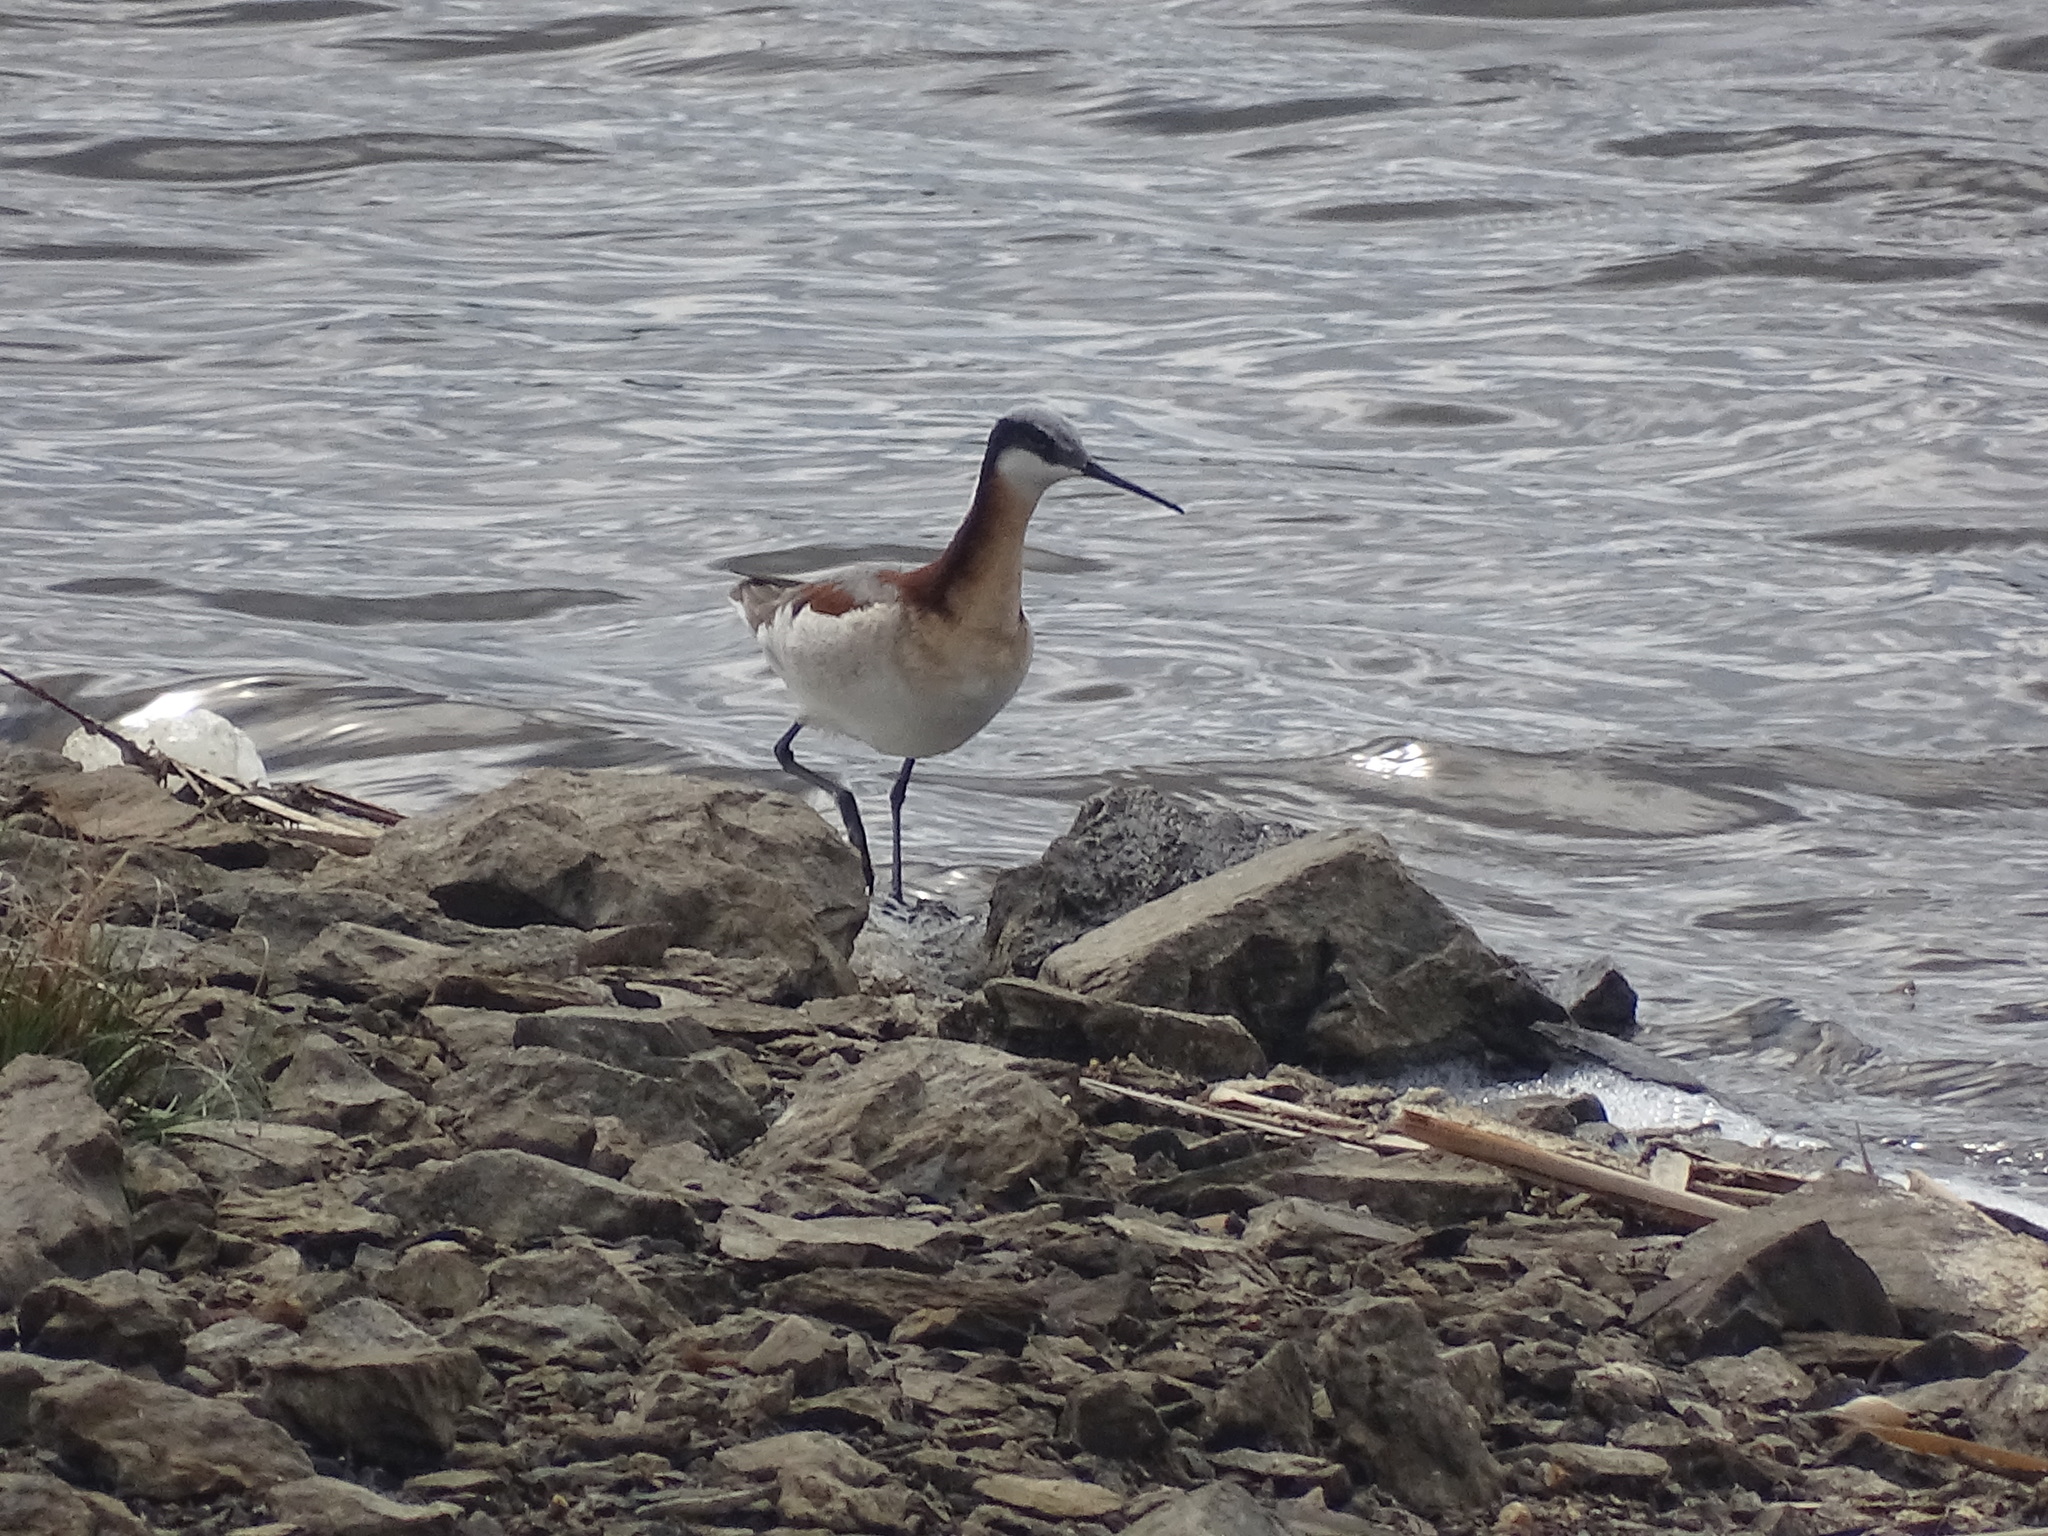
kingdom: Animalia
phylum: Chordata
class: Aves
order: Charadriiformes
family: Scolopacidae
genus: Phalaropus
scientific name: Phalaropus tricolor
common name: Wilson's phalarope
